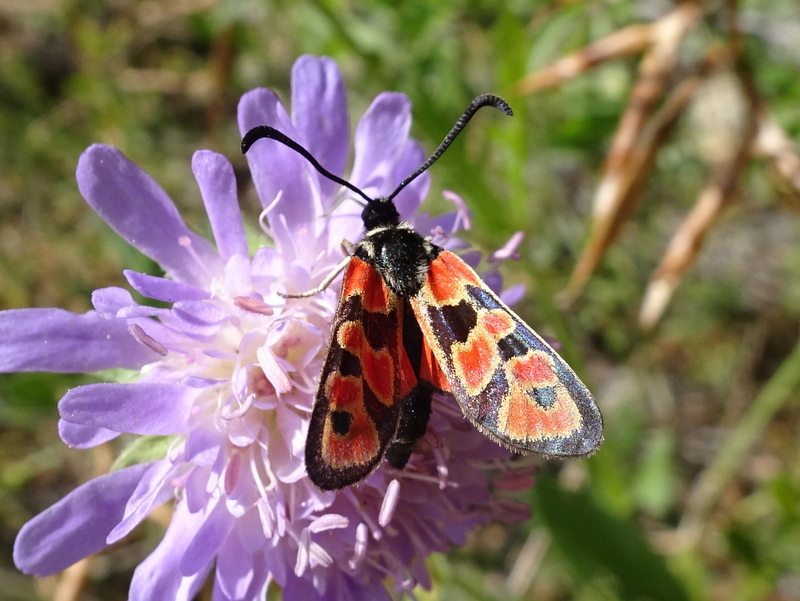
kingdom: Animalia
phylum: Arthropoda
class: Insecta
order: Lepidoptera
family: Zygaenidae
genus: Zygaena
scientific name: Zygaena hilaris
